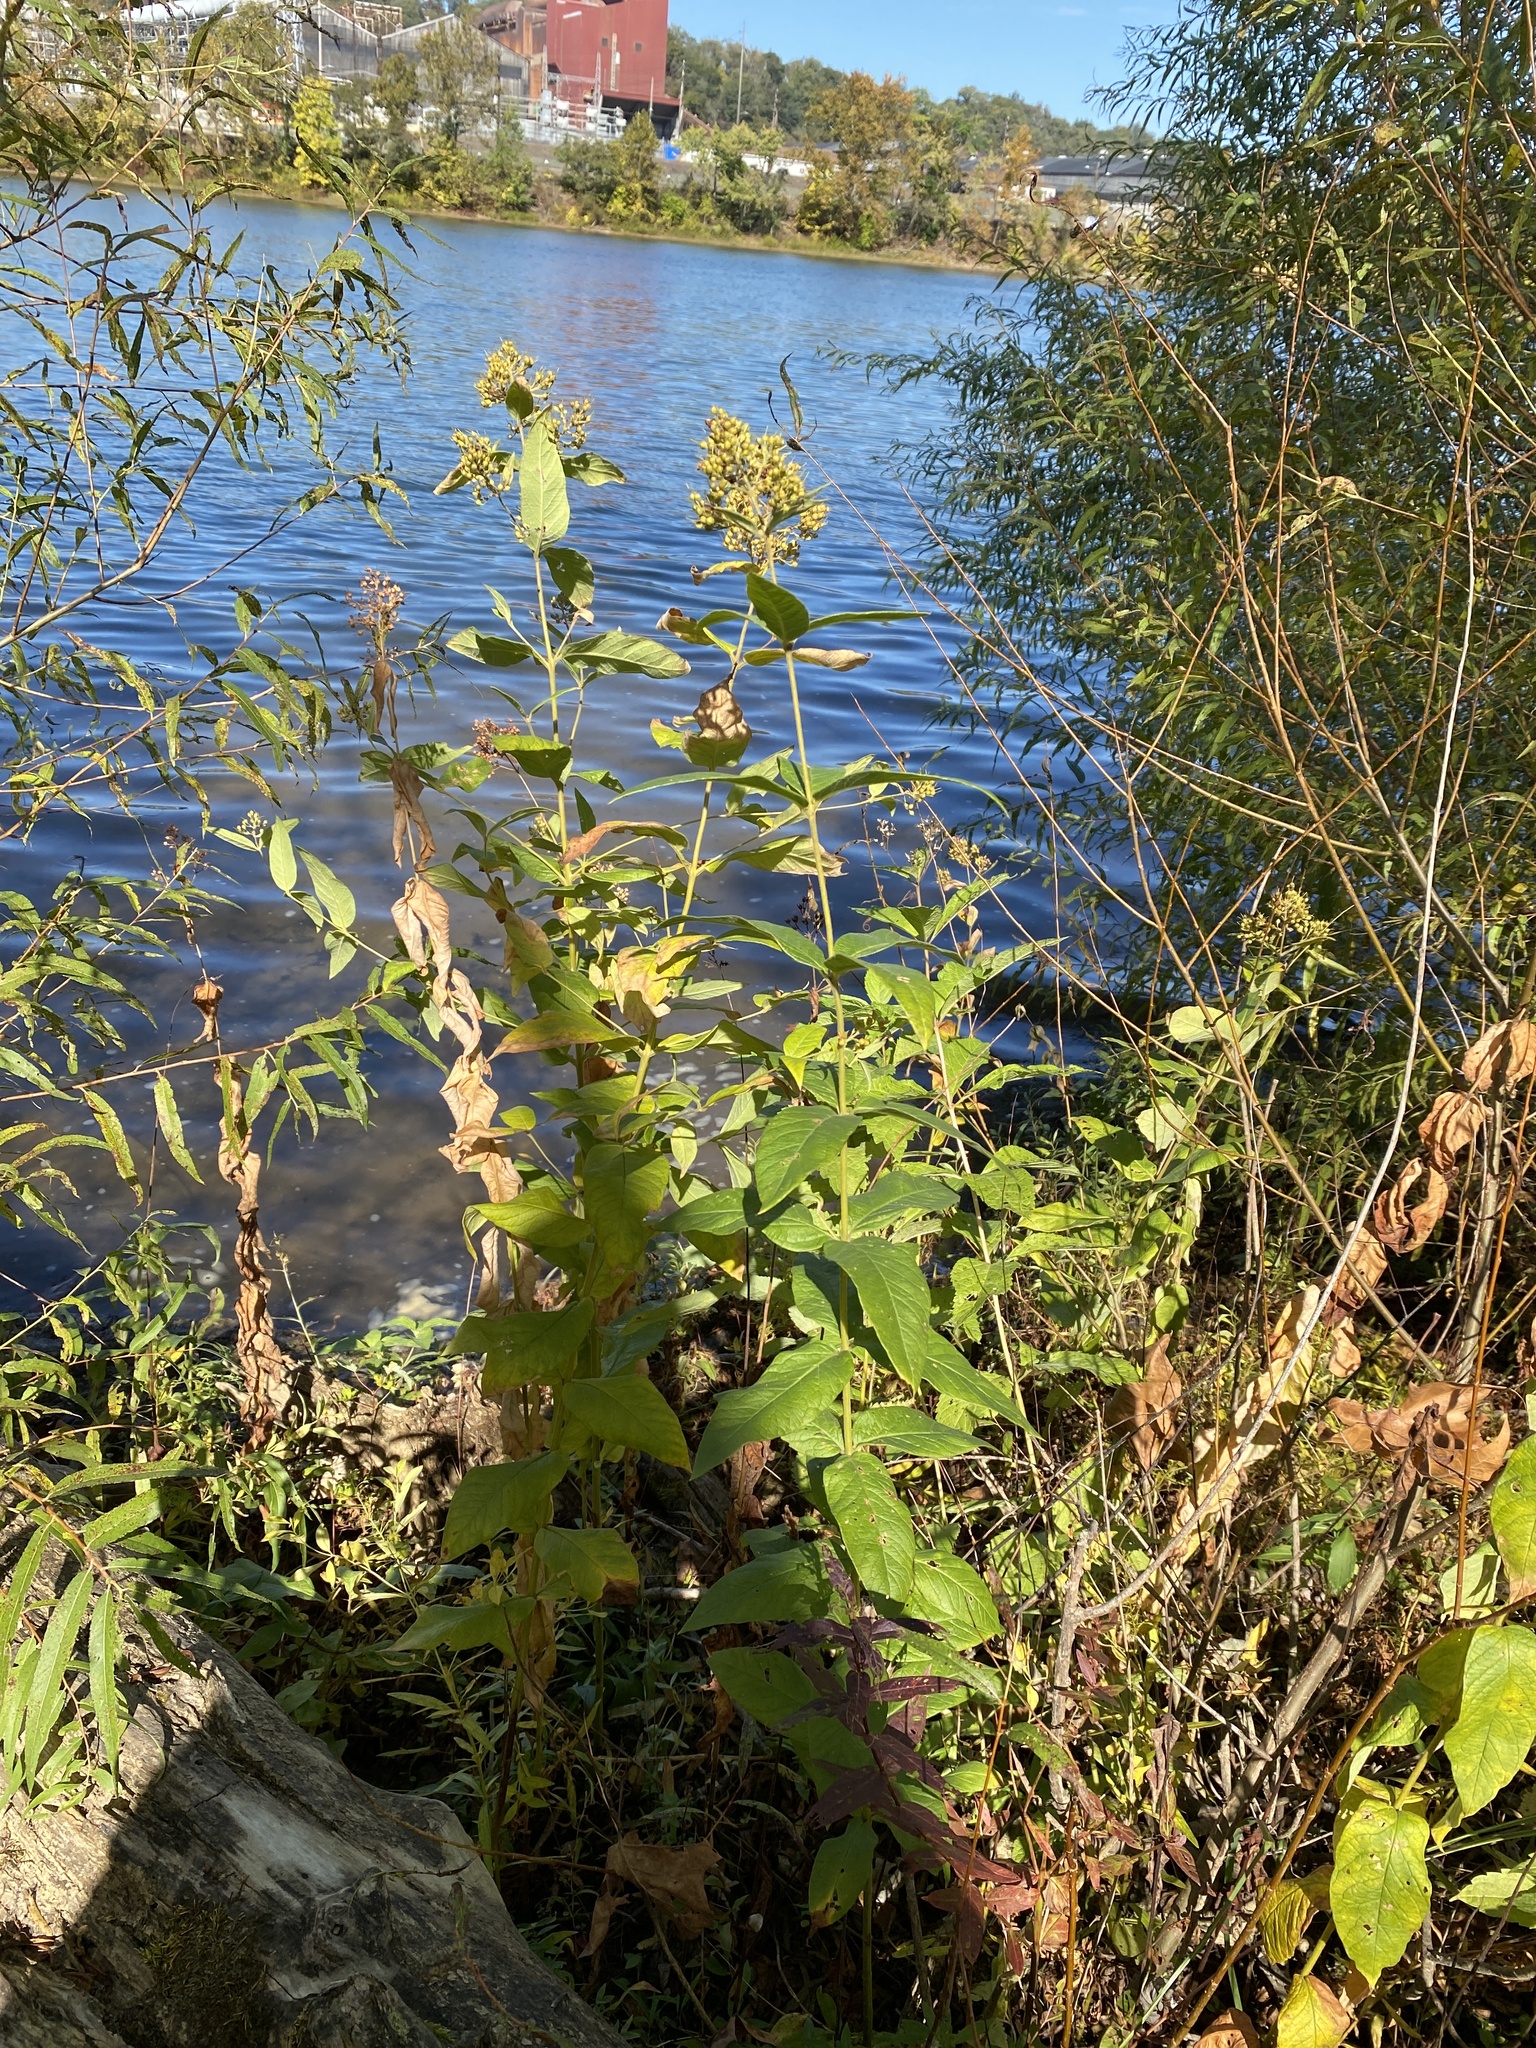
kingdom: Plantae
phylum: Tracheophyta
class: Magnoliopsida
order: Ericales
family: Primulaceae
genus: Lysimachia
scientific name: Lysimachia vulgaris
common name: Yellow loosestrife
